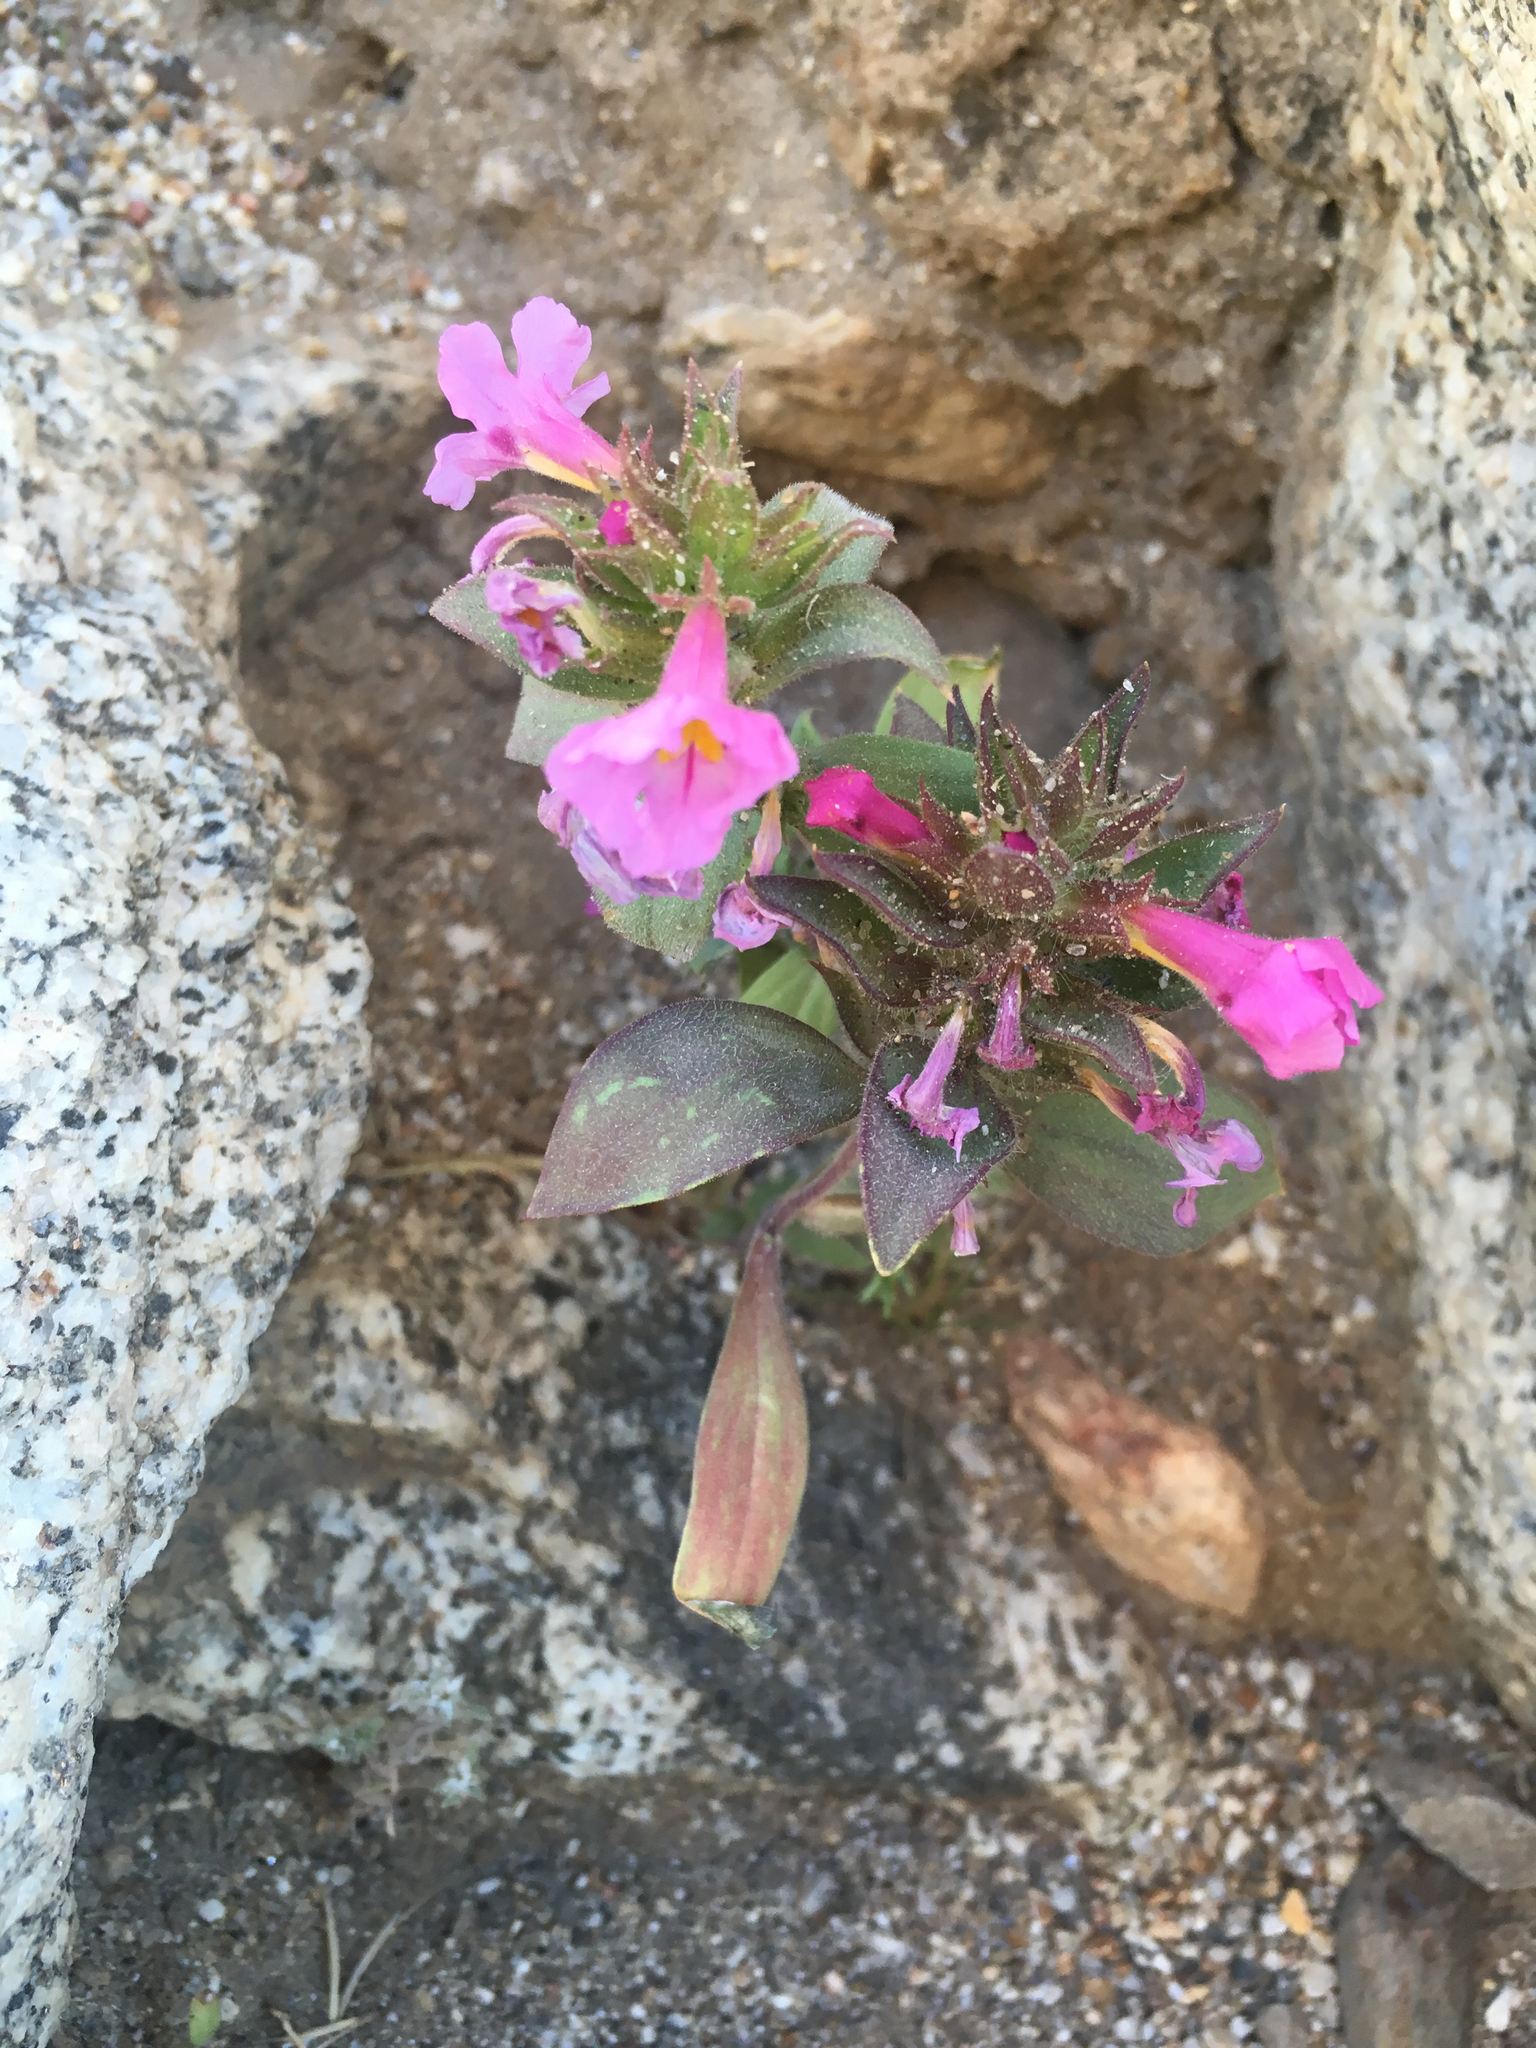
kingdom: Plantae
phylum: Tracheophyta
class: Magnoliopsida
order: Lamiales
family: Phrymaceae
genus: Diplacus
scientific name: Diplacus bigelovii
